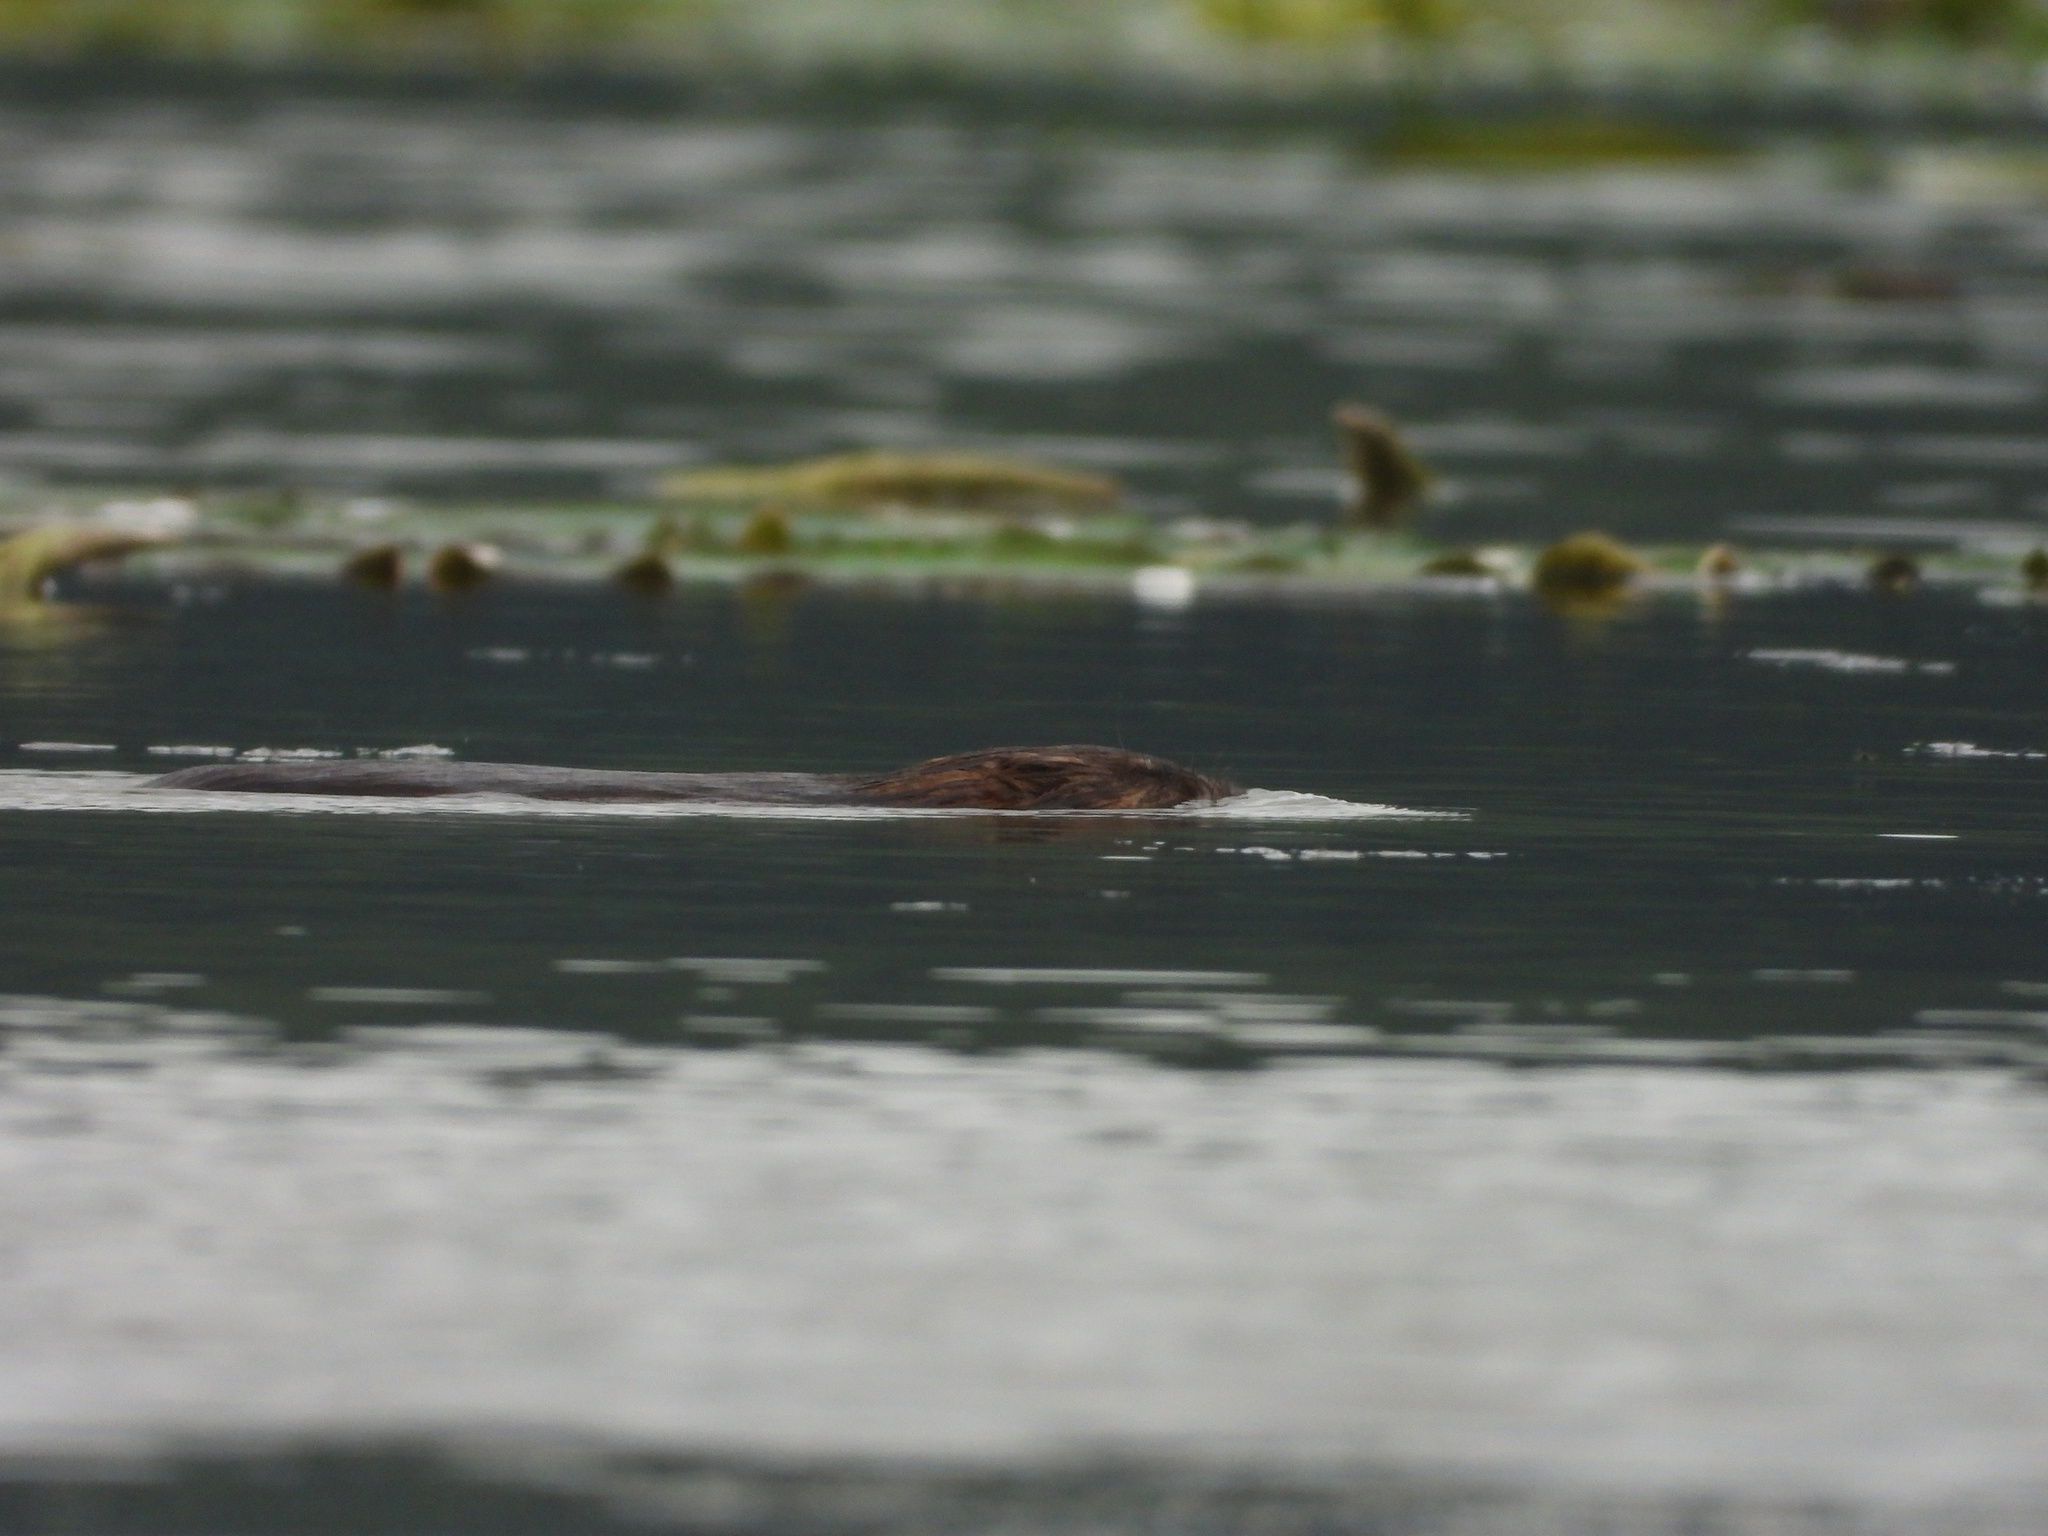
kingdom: Animalia
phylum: Chordata
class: Mammalia
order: Rodentia
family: Cricetidae
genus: Ondatra
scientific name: Ondatra zibethicus
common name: Muskrat
